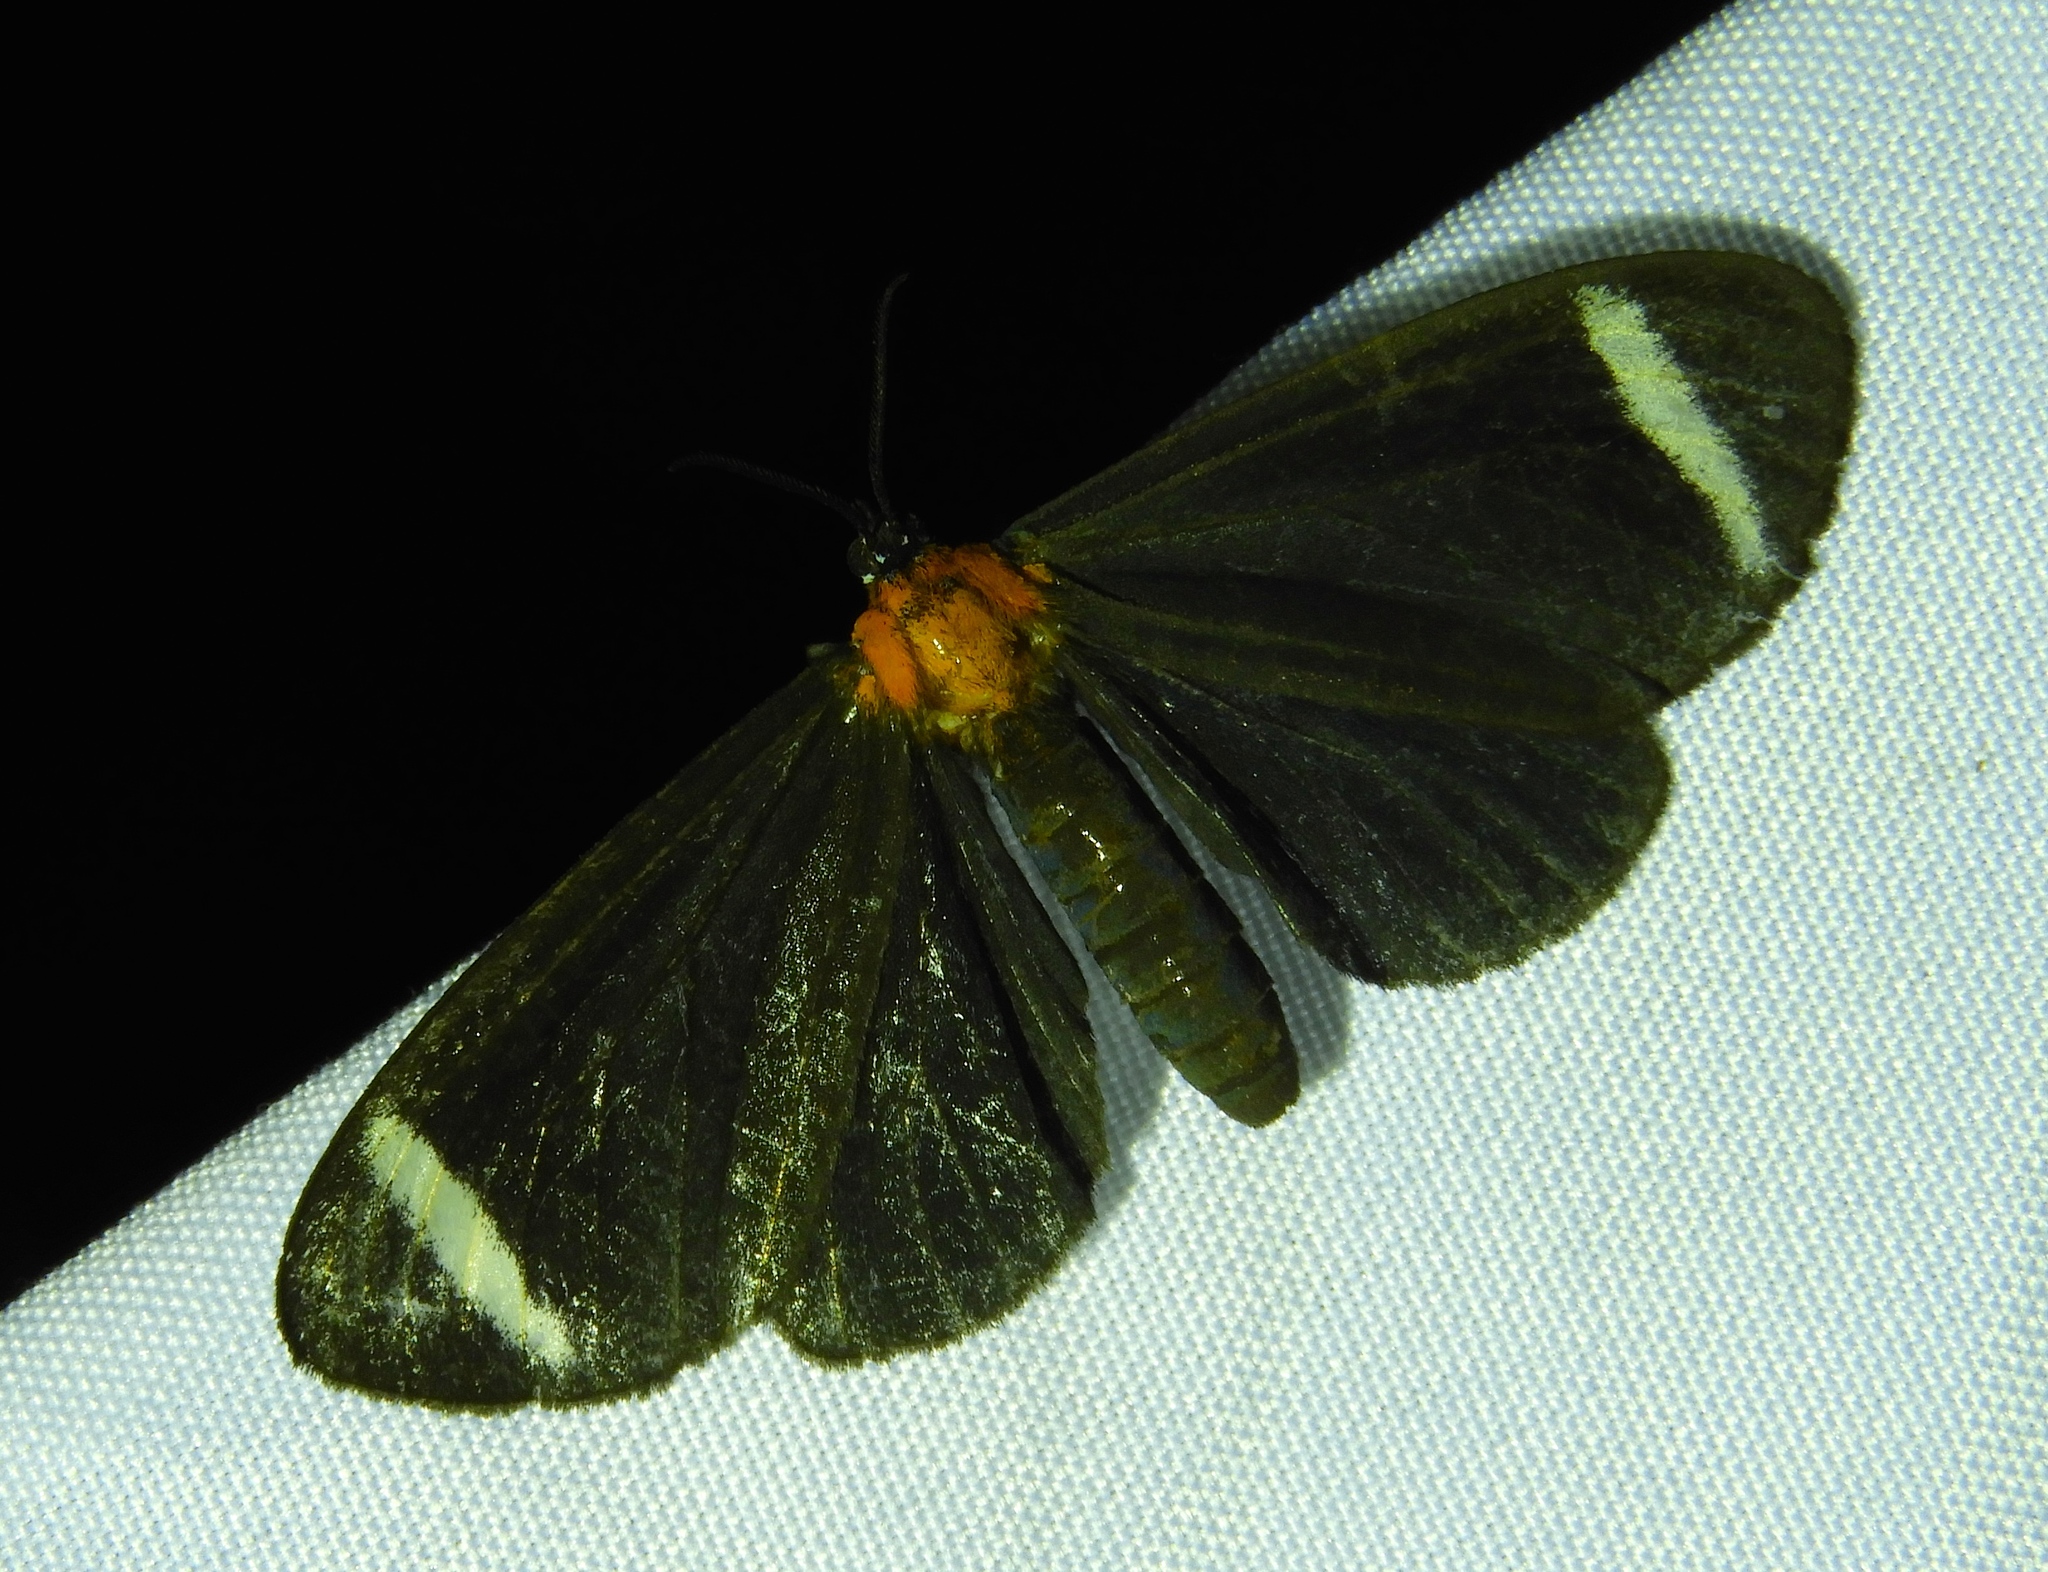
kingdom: Animalia
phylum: Arthropoda
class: Insecta
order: Lepidoptera
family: Erebidae
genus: Hyalurga
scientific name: Hyalurga
